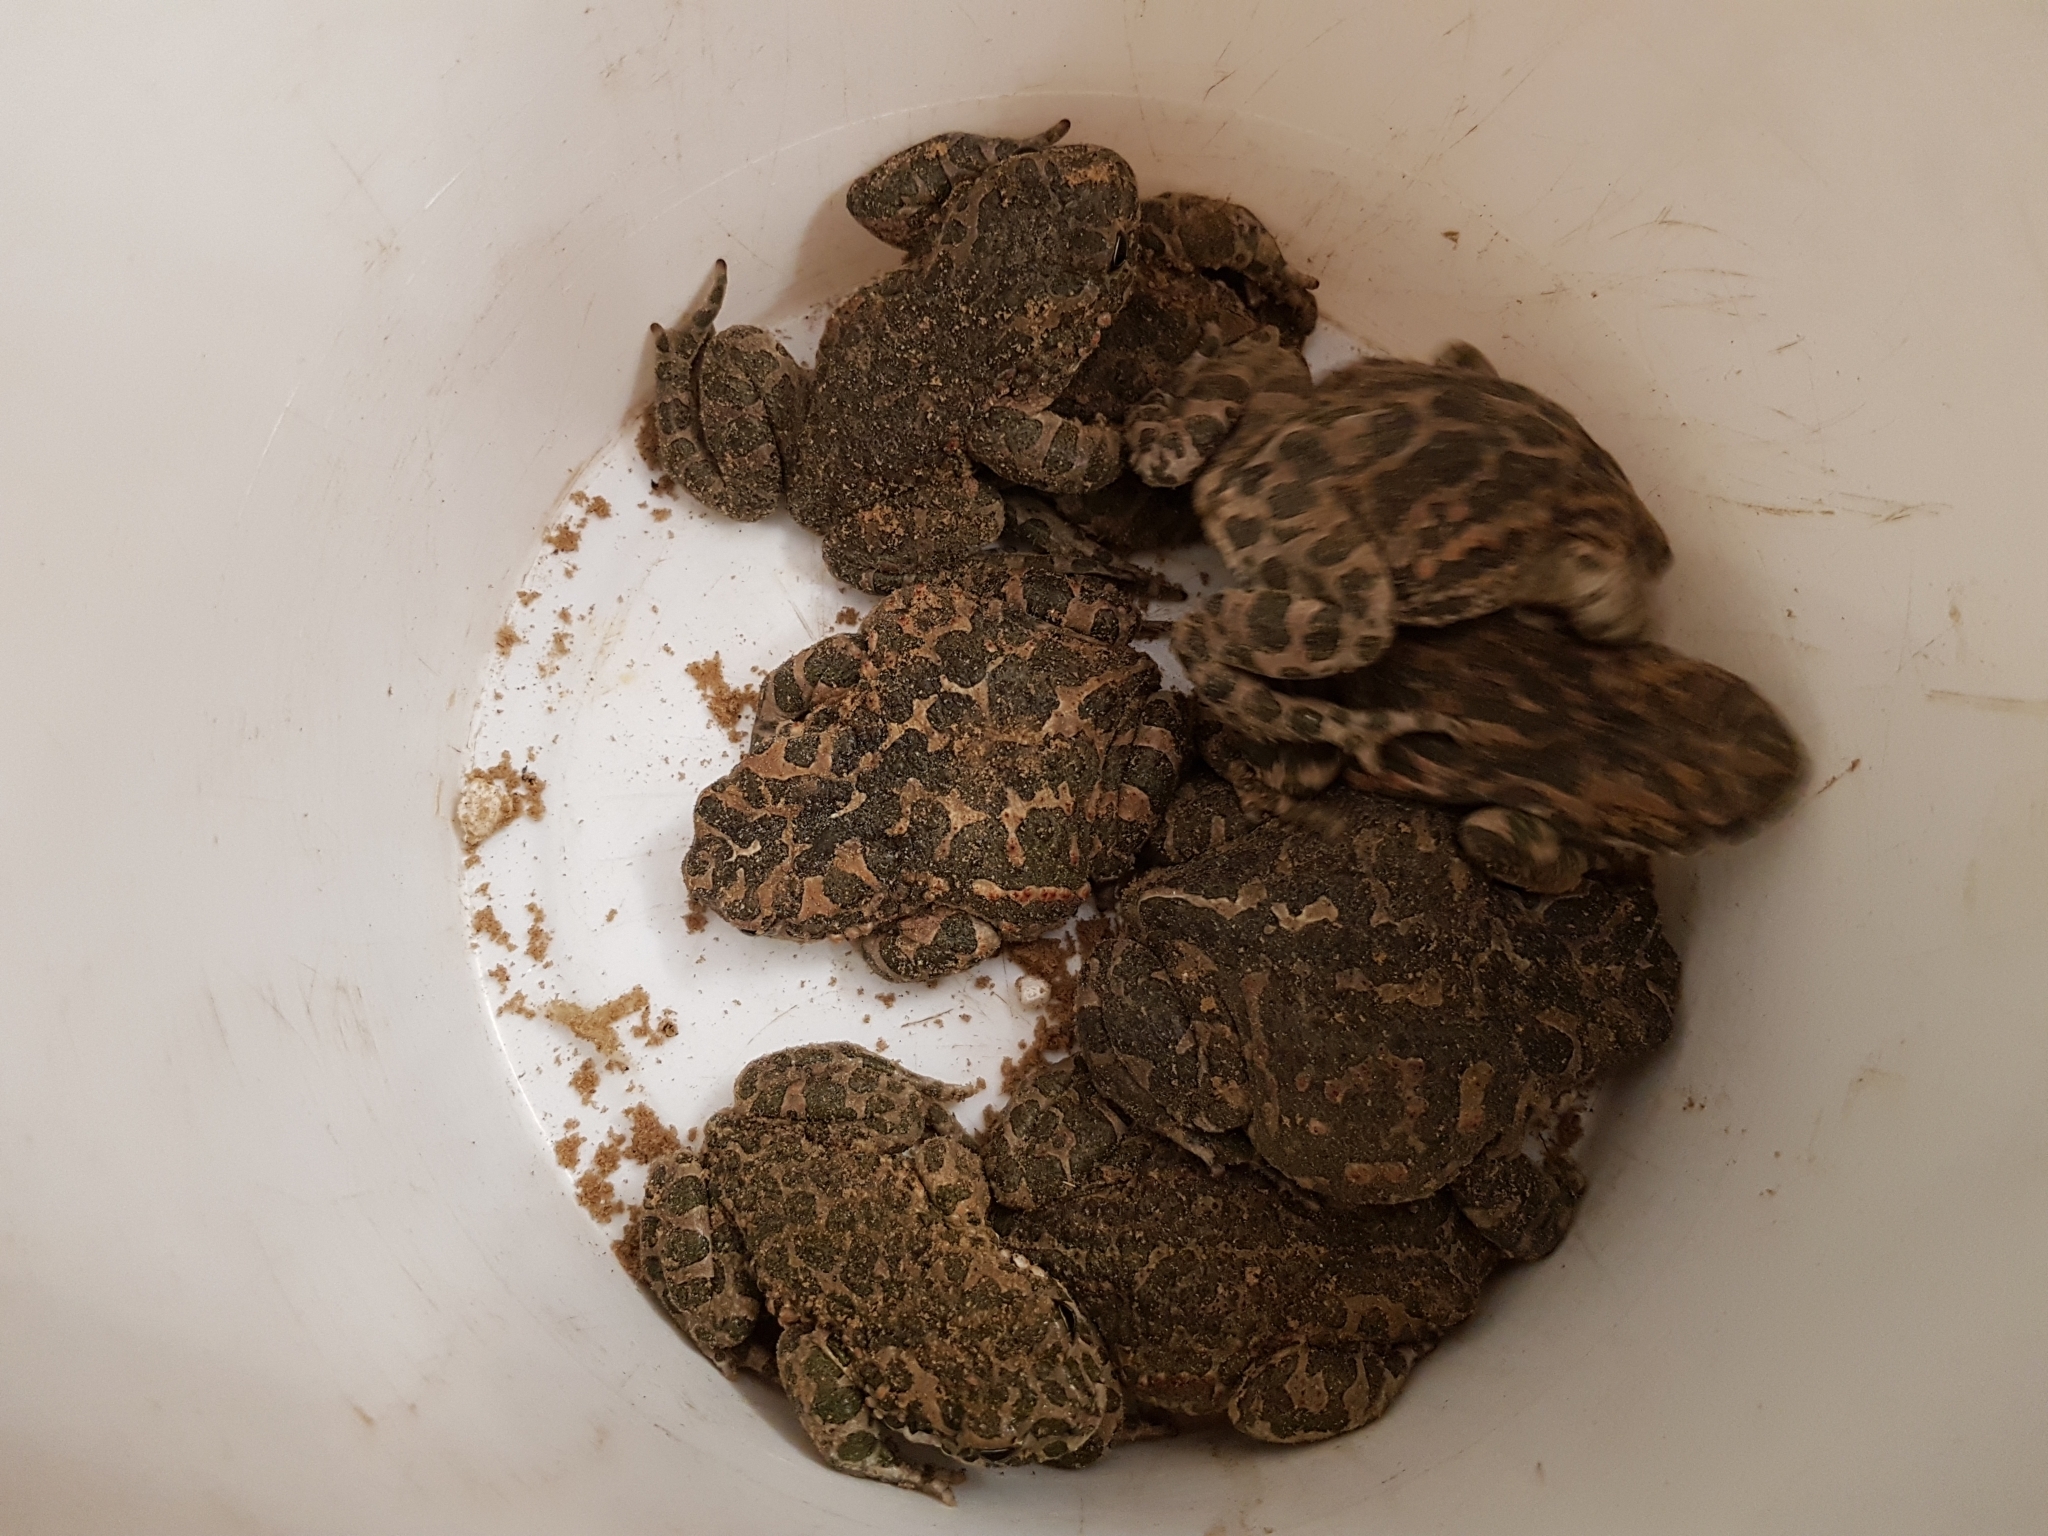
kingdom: Animalia
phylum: Chordata
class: Amphibia
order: Anura
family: Bufonidae
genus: Bufotes
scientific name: Bufotes viridis
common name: European green toad
